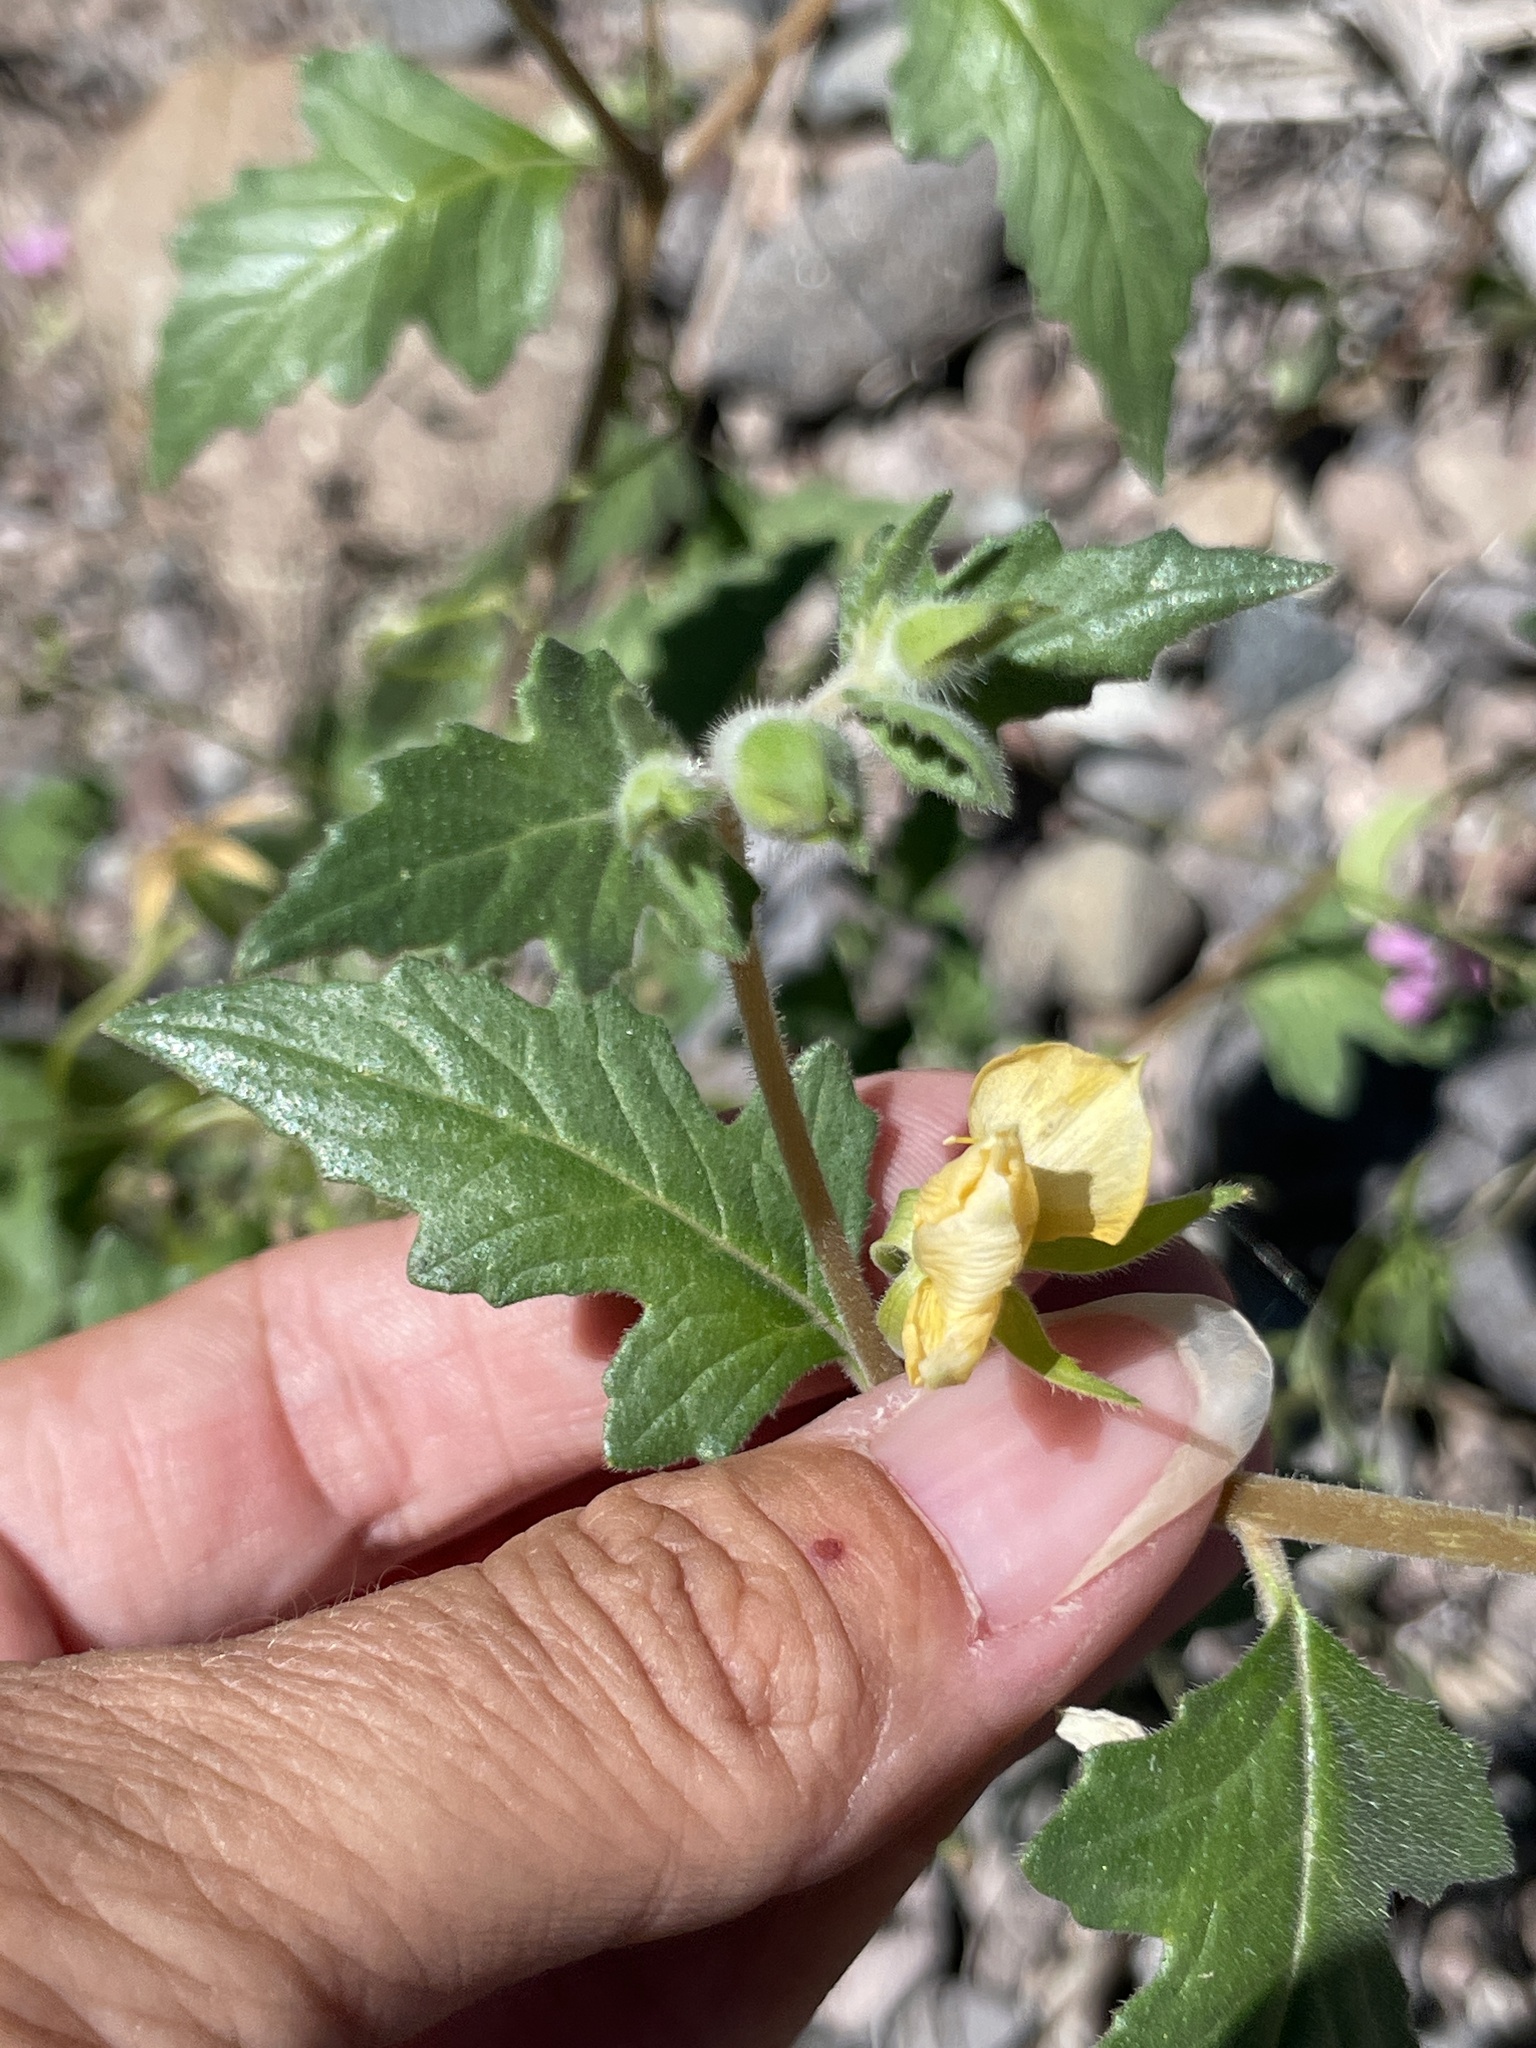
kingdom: Plantae
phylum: Tracheophyta
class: Magnoliopsida
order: Cornales
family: Loasaceae
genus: Mentzelia
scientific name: Mentzelia adhaerens
